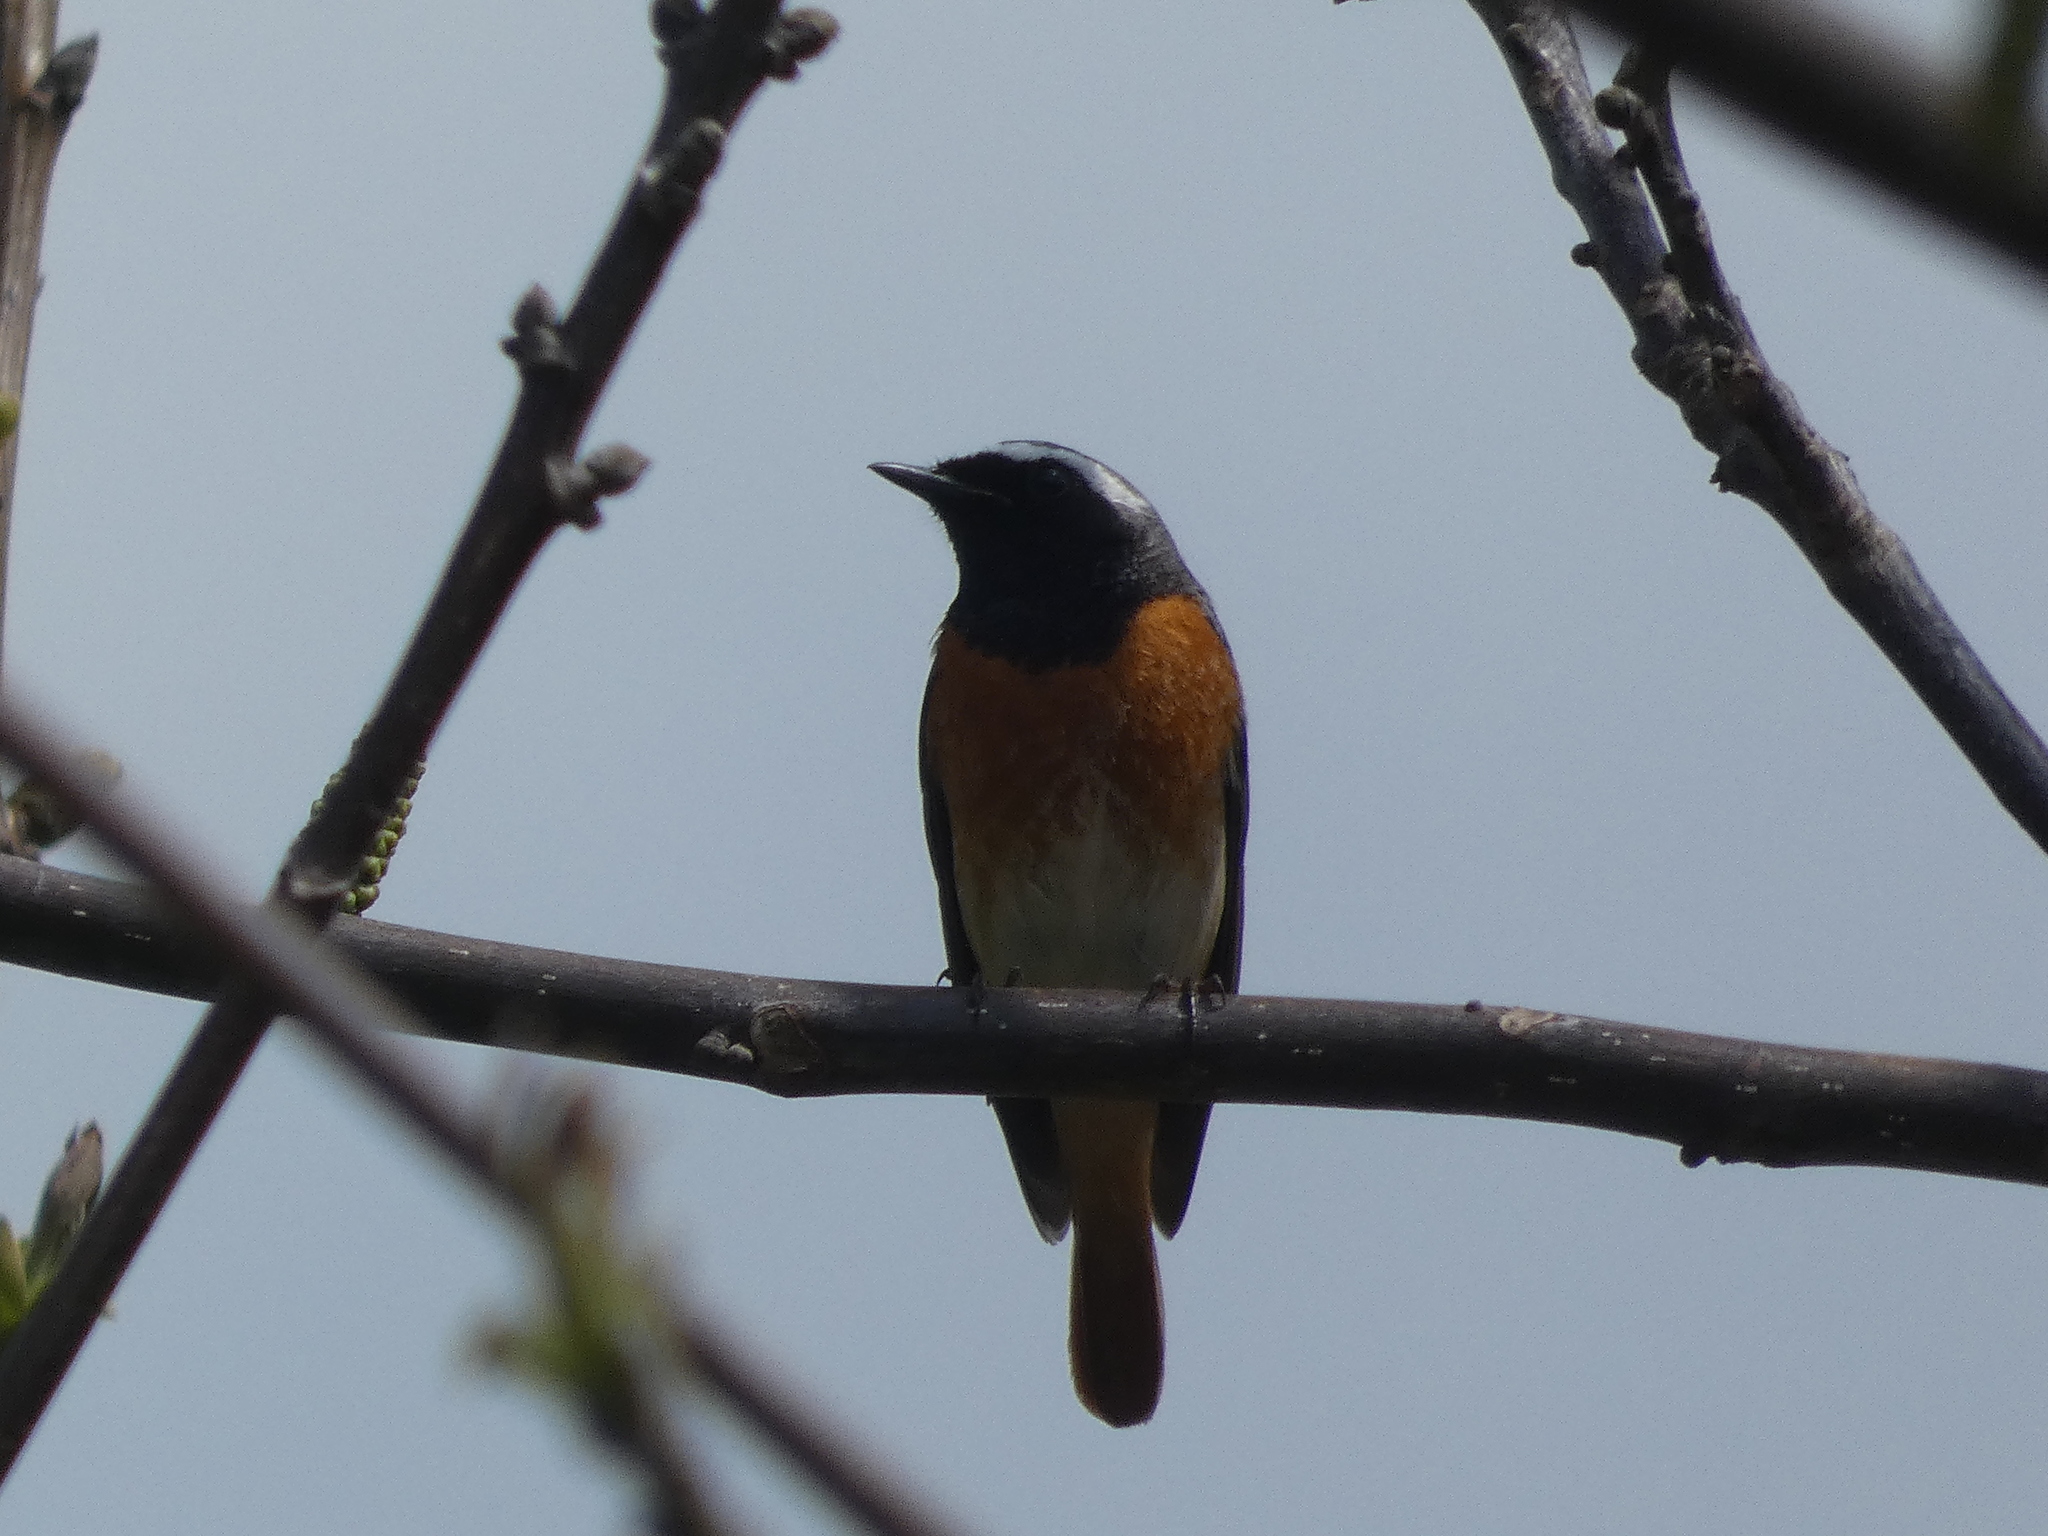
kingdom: Animalia
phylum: Chordata
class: Aves
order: Passeriformes
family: Muscicapidae
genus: Phoenicurus
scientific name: Phoenicurus phoenicurus
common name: Common redstart
